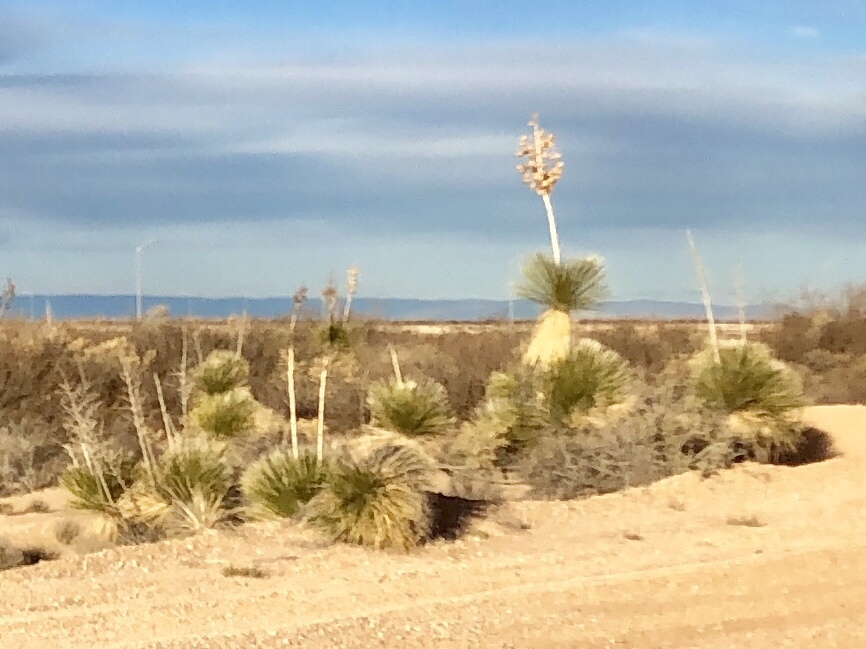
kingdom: Plantae
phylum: Tracheophyta
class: Liliopsida
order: Asparagales
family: Asparagaceae
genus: Yucca
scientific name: Yucca elata
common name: Palmella
